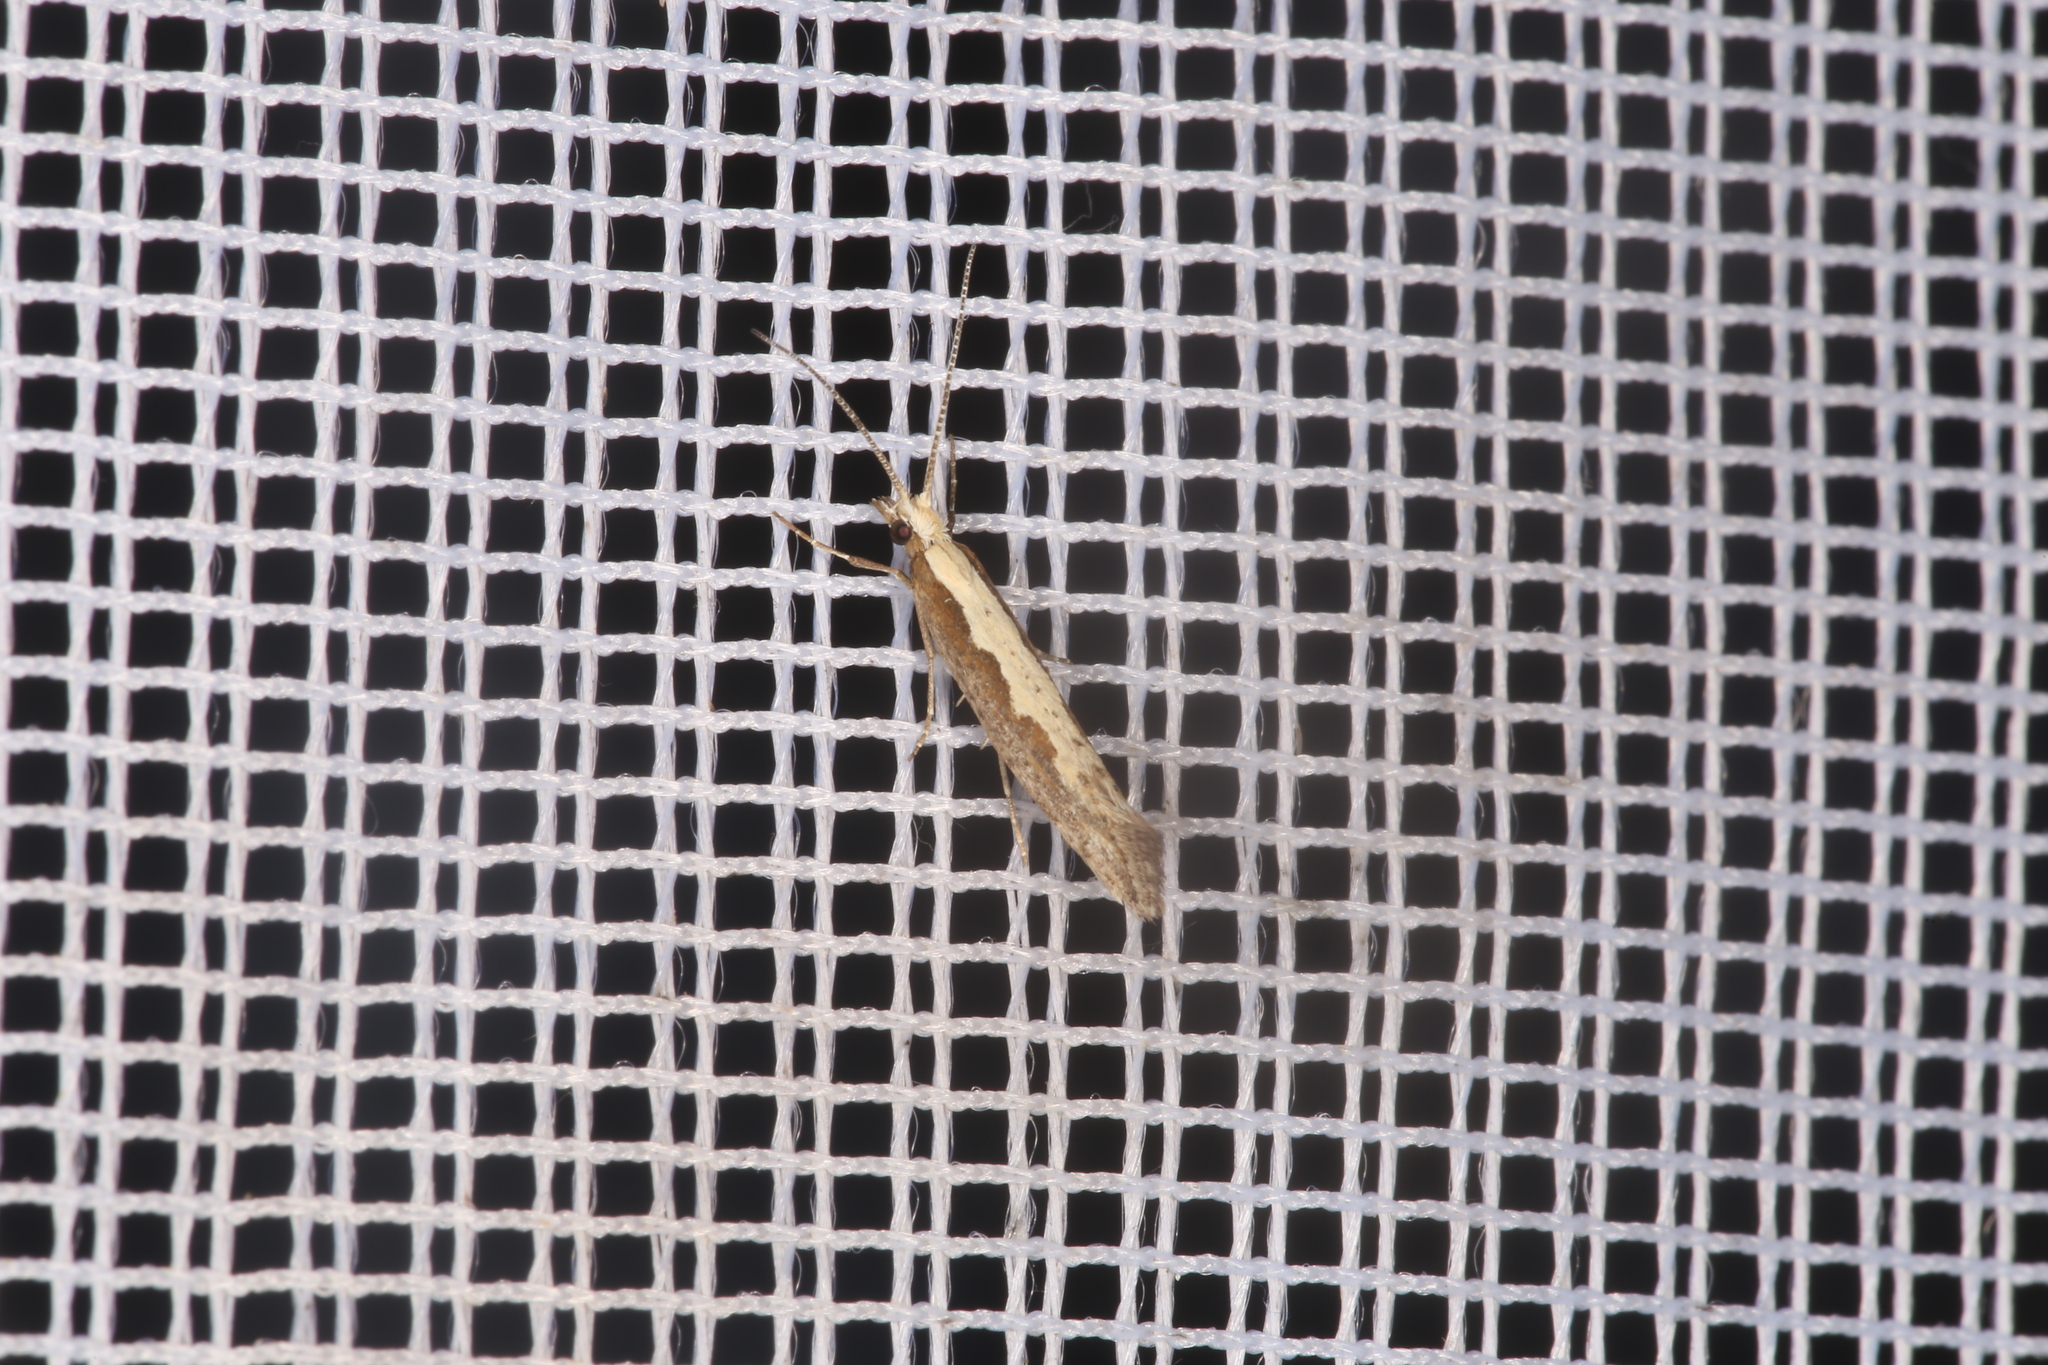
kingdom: Animalia
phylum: Arthropoda
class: Insecta
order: Lepidoptera
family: Plutellidae
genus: Plutella
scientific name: Plutella xylostella
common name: Diamond-back moth
